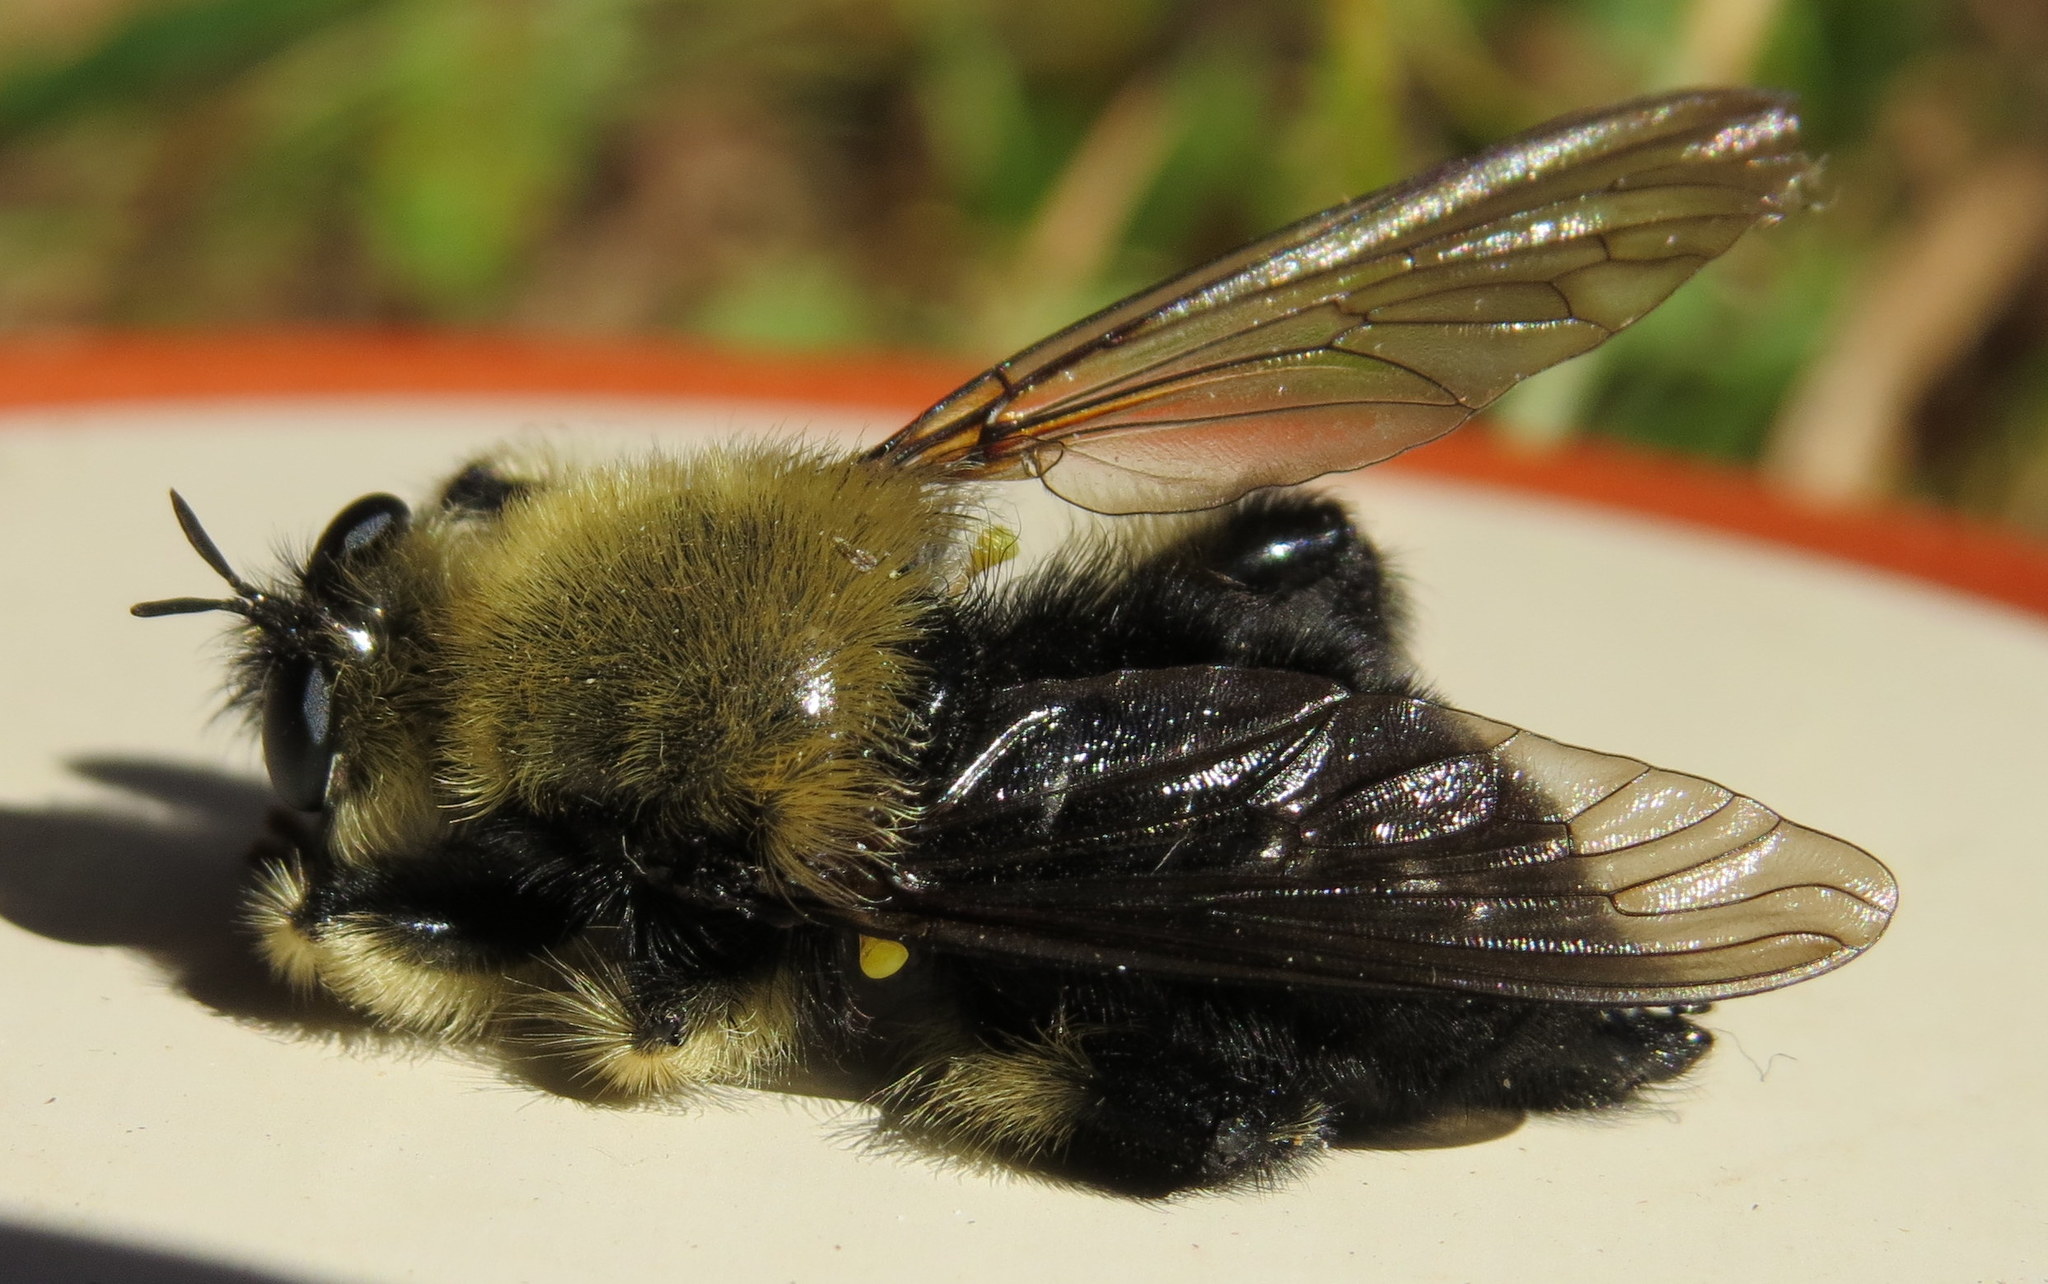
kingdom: Animalia
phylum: Arthropoda
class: Insecta
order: Diptera
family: Asilidae
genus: Laphria
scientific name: Laphria affinis
